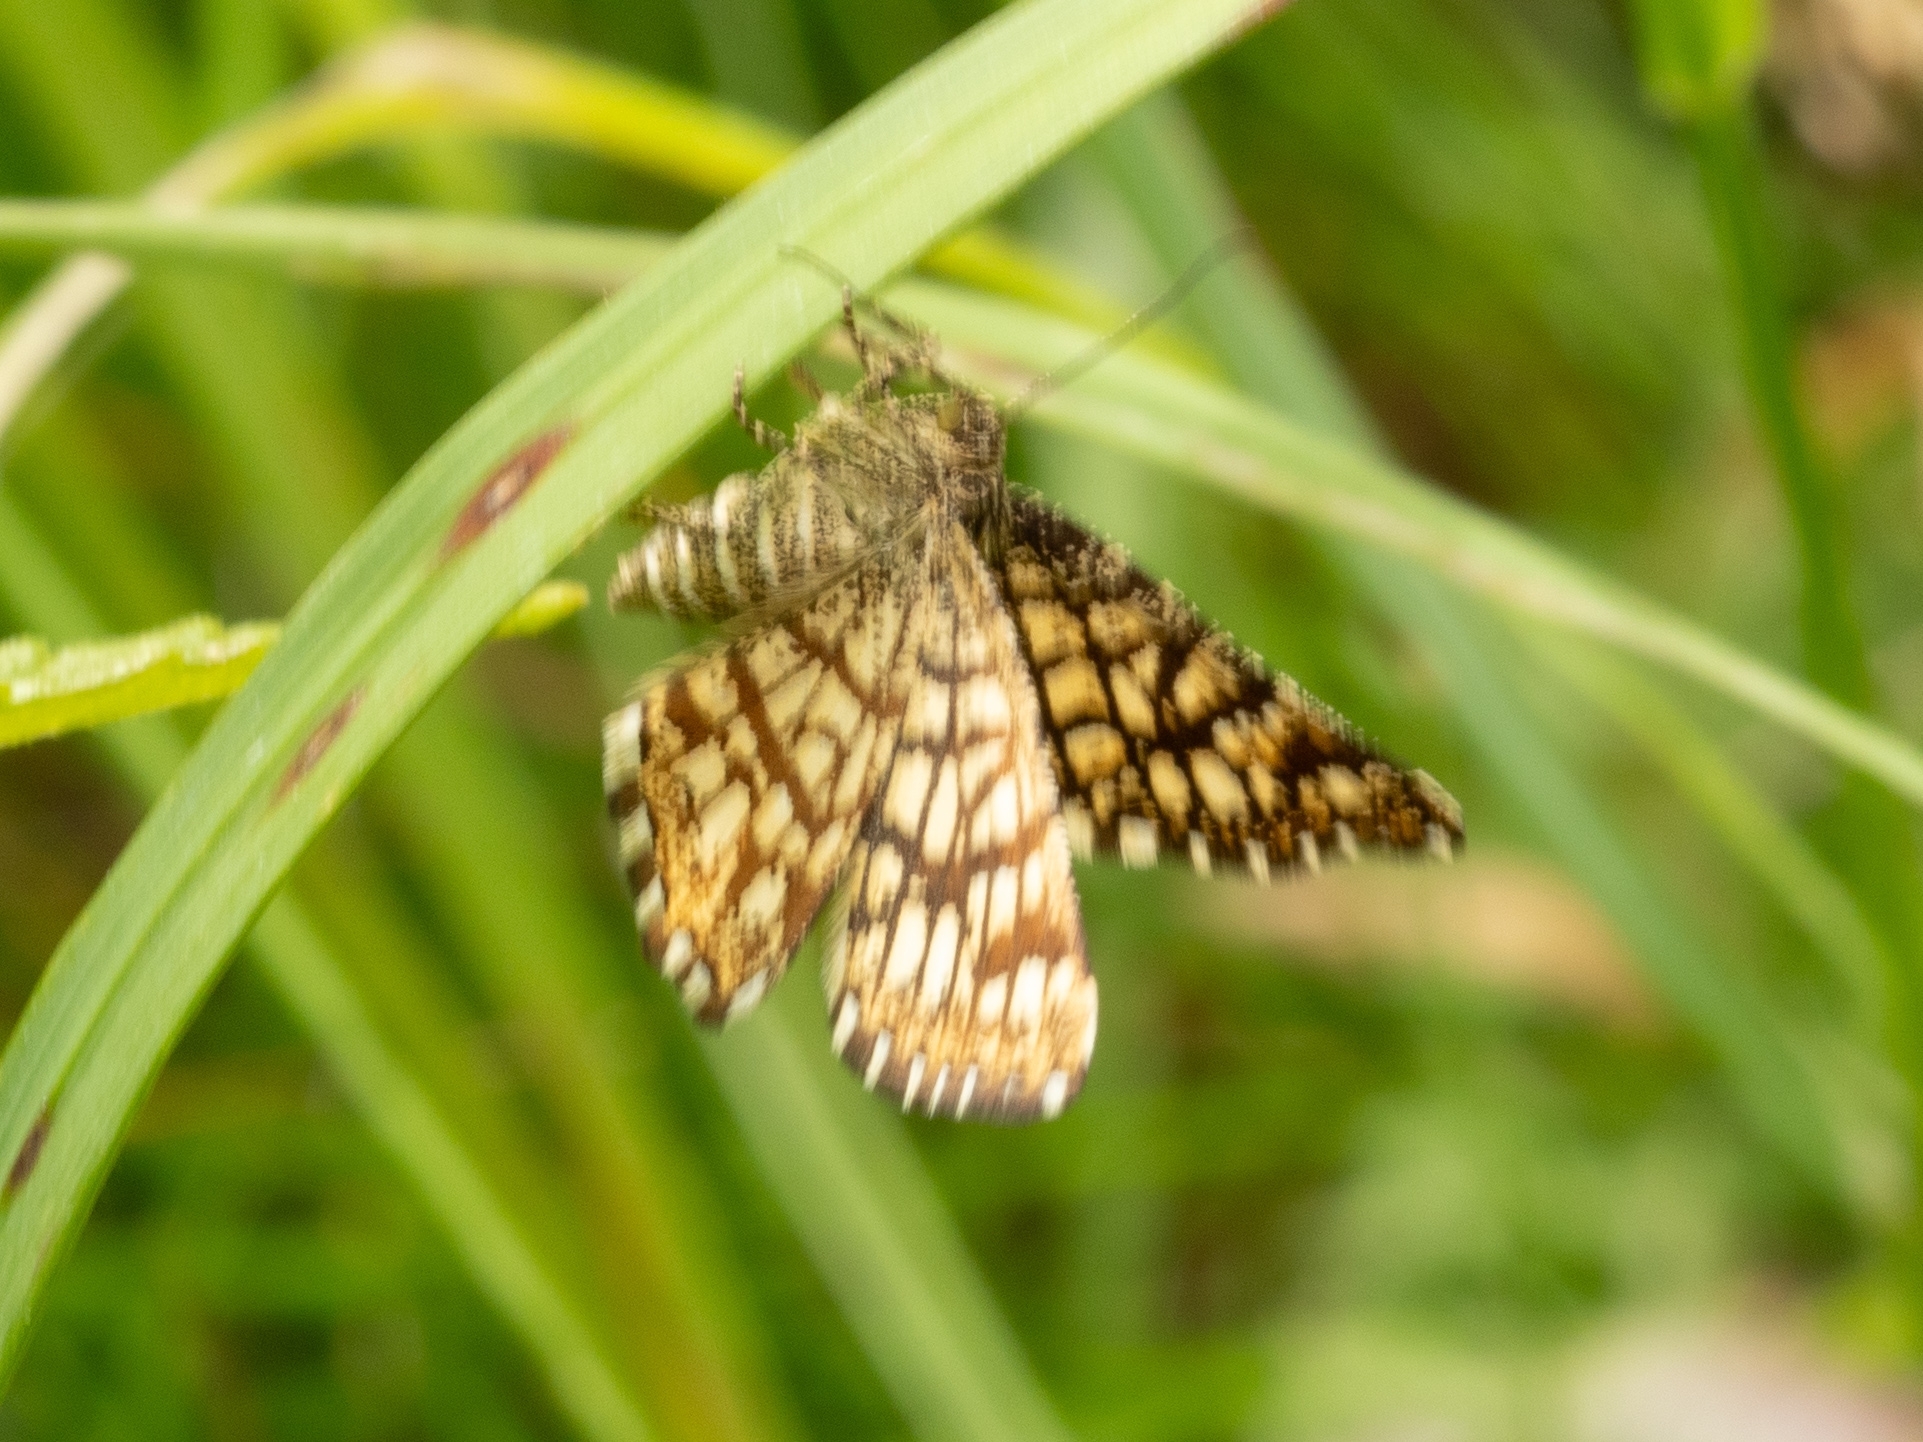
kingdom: Animalia
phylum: Arthropoda
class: Insecta
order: Lepidoptera
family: Geometridae
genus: Chiasmia
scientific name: Chiasmia clathrata
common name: Latticed heath
